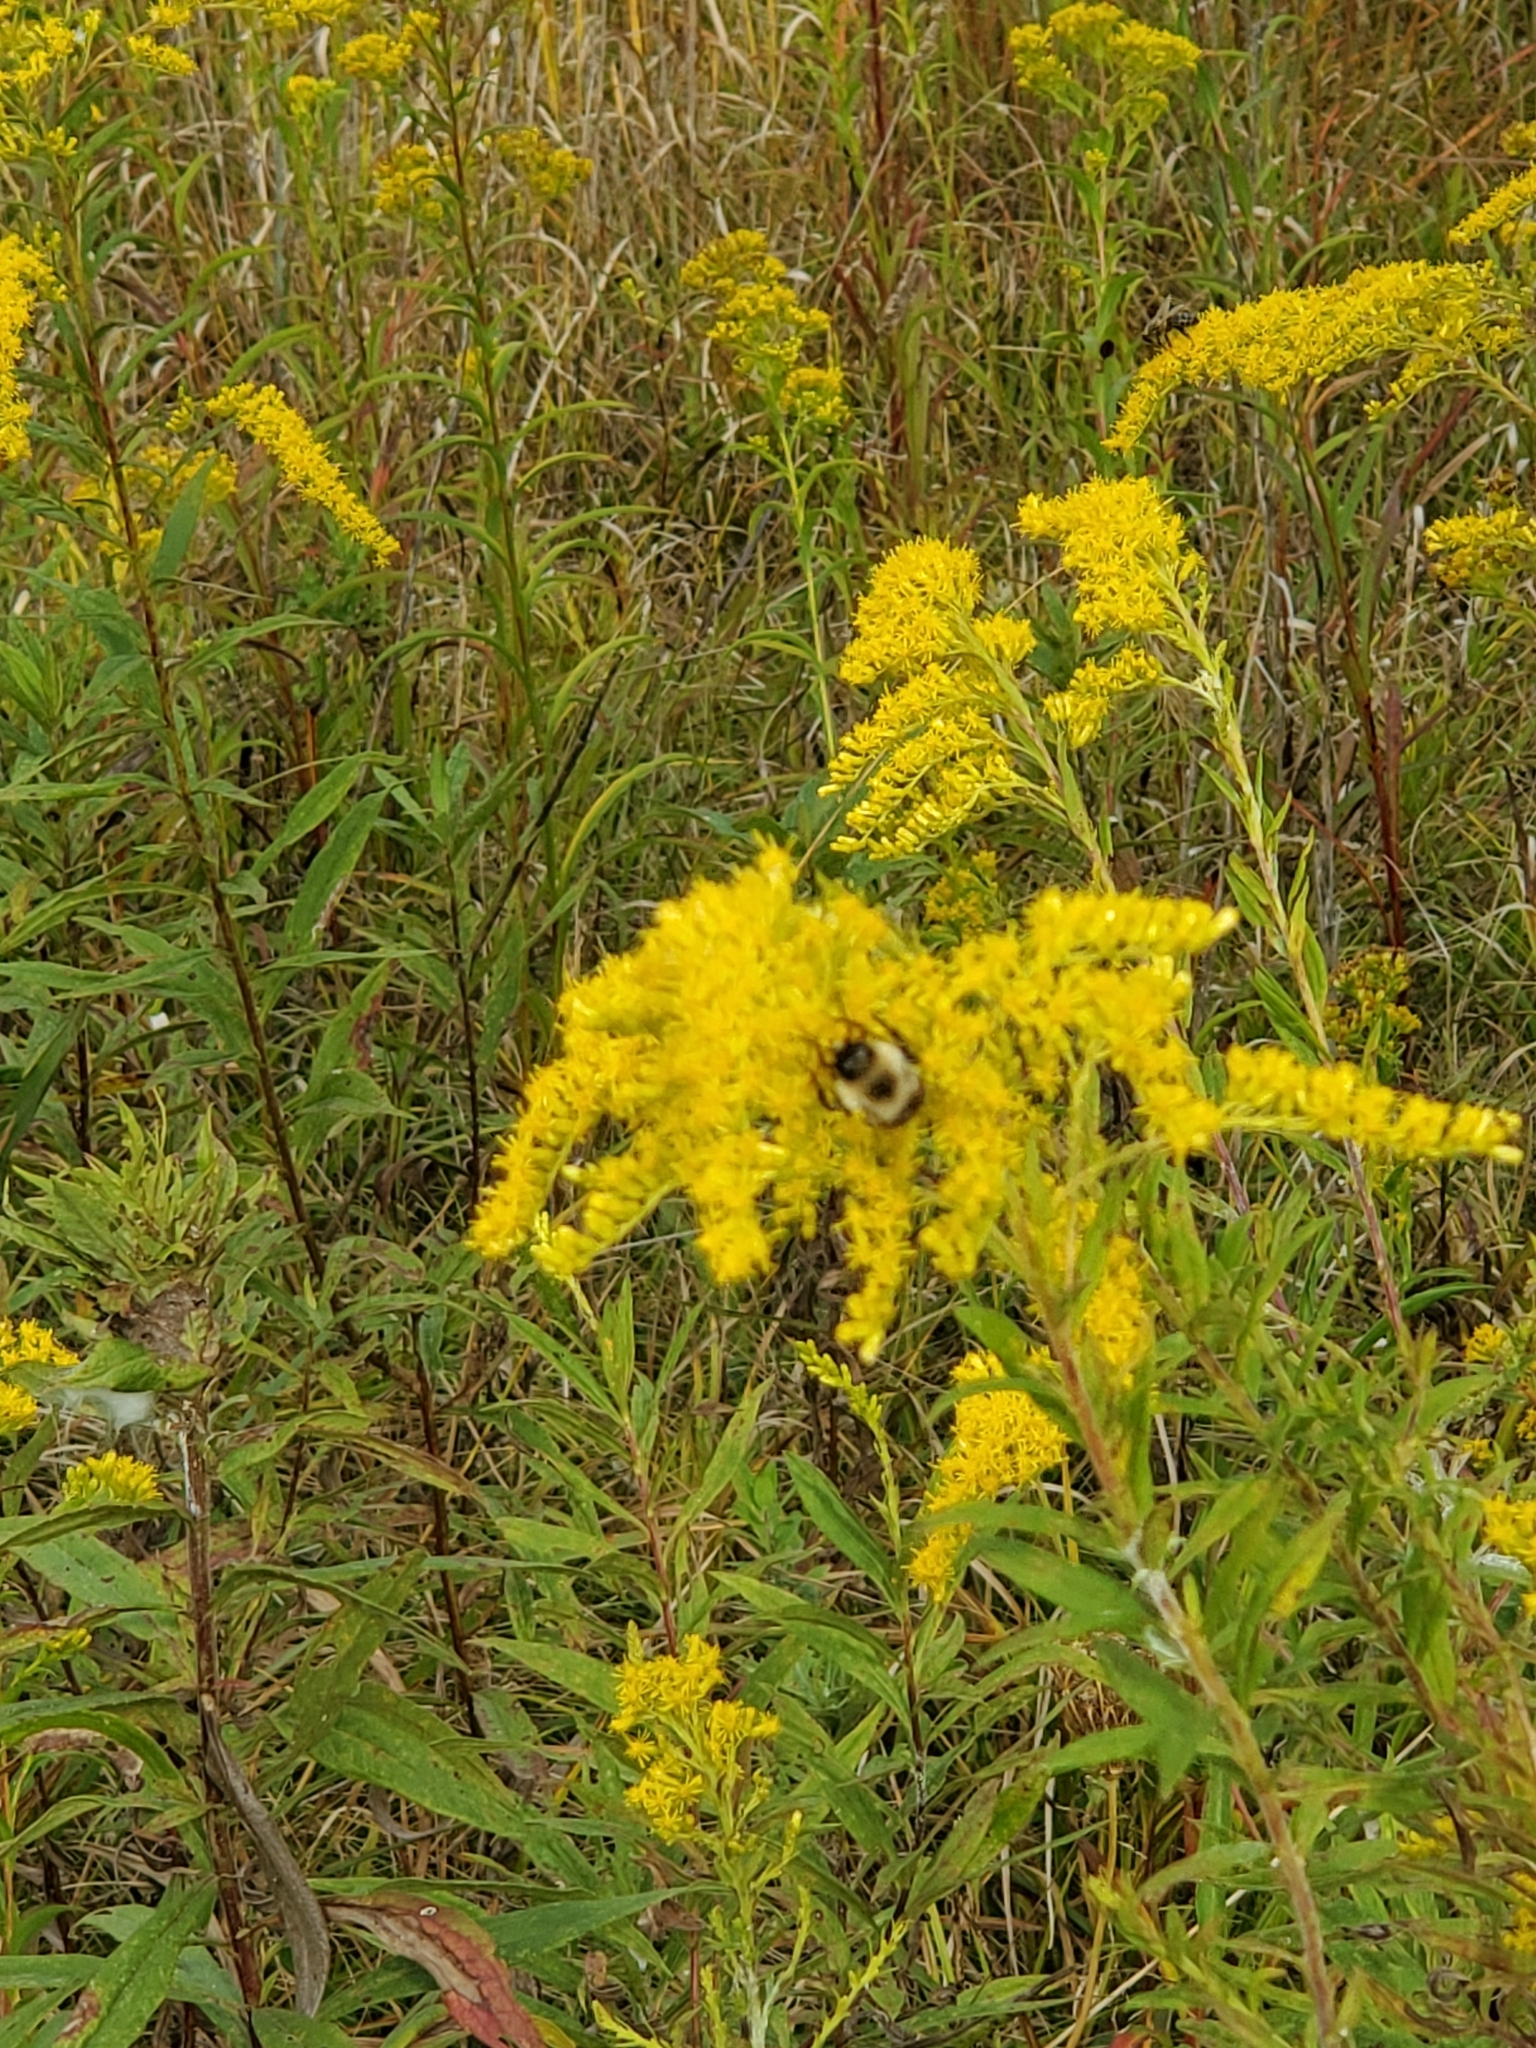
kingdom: Animalia
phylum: Arthropoda
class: Insecta
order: Hymenoptera
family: Apidae
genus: Bombus
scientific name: Bombus impatiens
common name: Common eastern bumble bee
